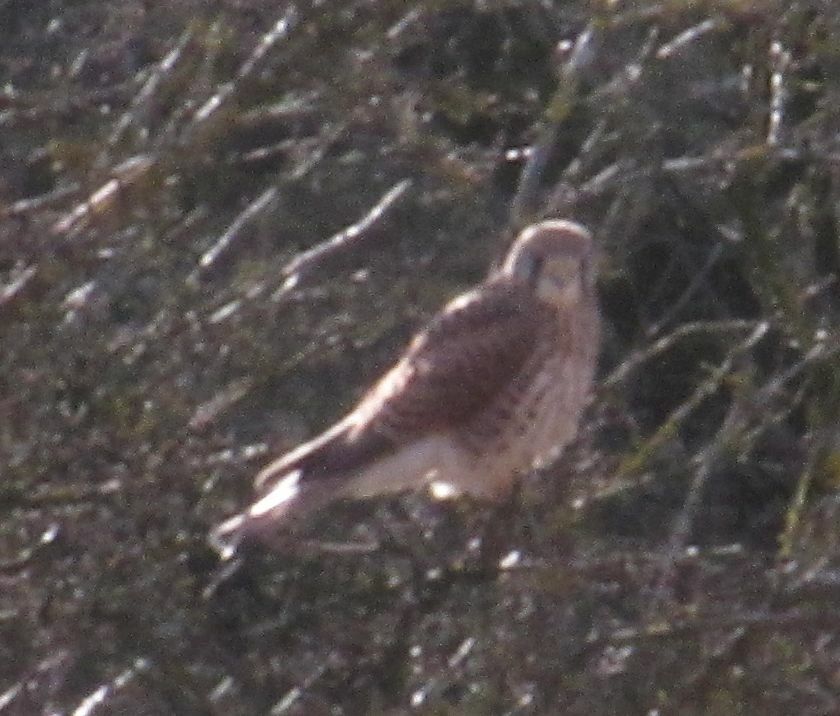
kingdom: Animalia
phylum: Chordata
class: Aves
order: Falconiformes
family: Falconidae
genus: Falco
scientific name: Falco tinnunculus
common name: Common kestrel
